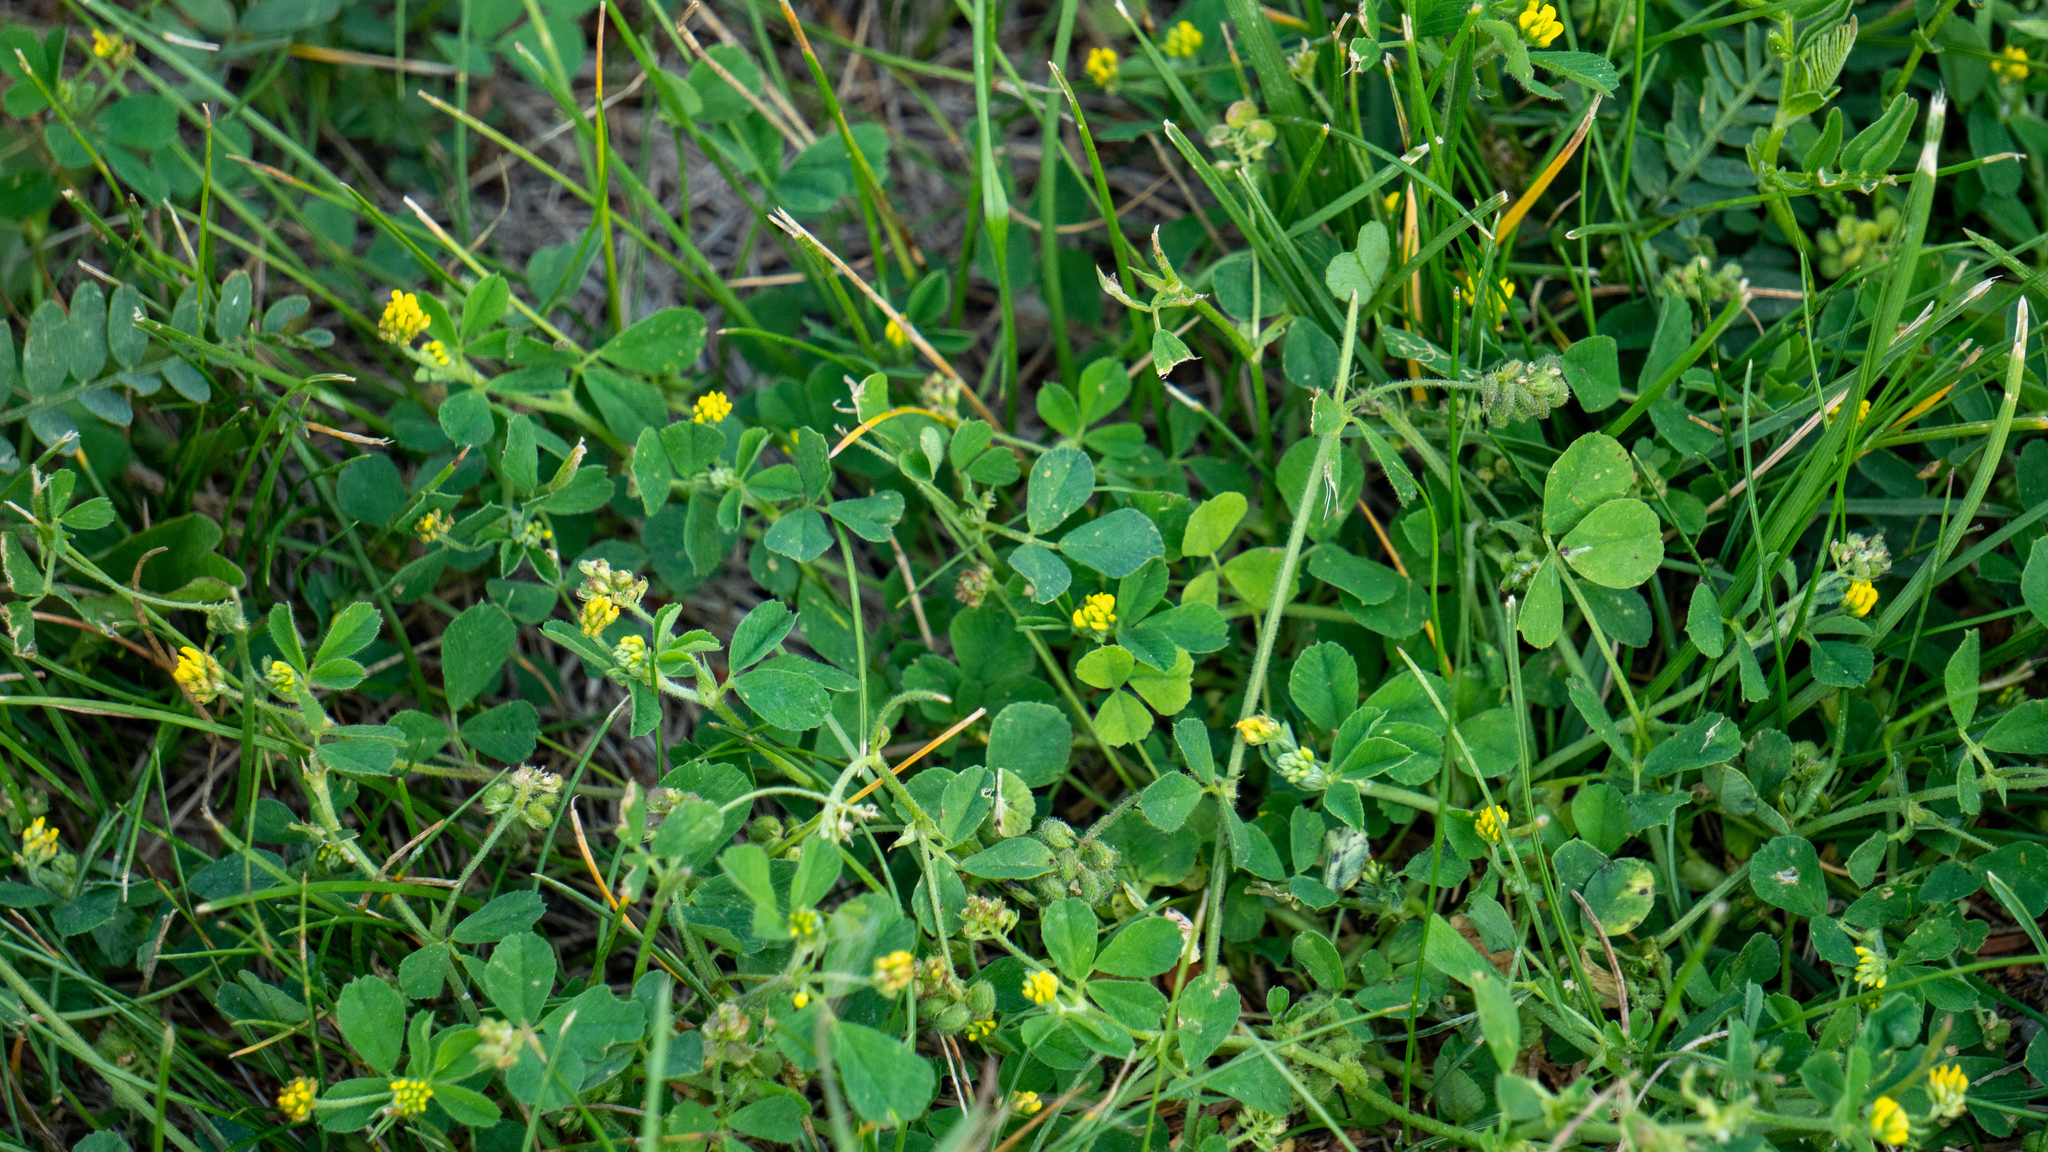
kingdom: Plantae
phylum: Tracheophyta
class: Magnoliopsida
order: Fabales
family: Fabaceae
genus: Medicago
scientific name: Medicago lupulina
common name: Black medick
